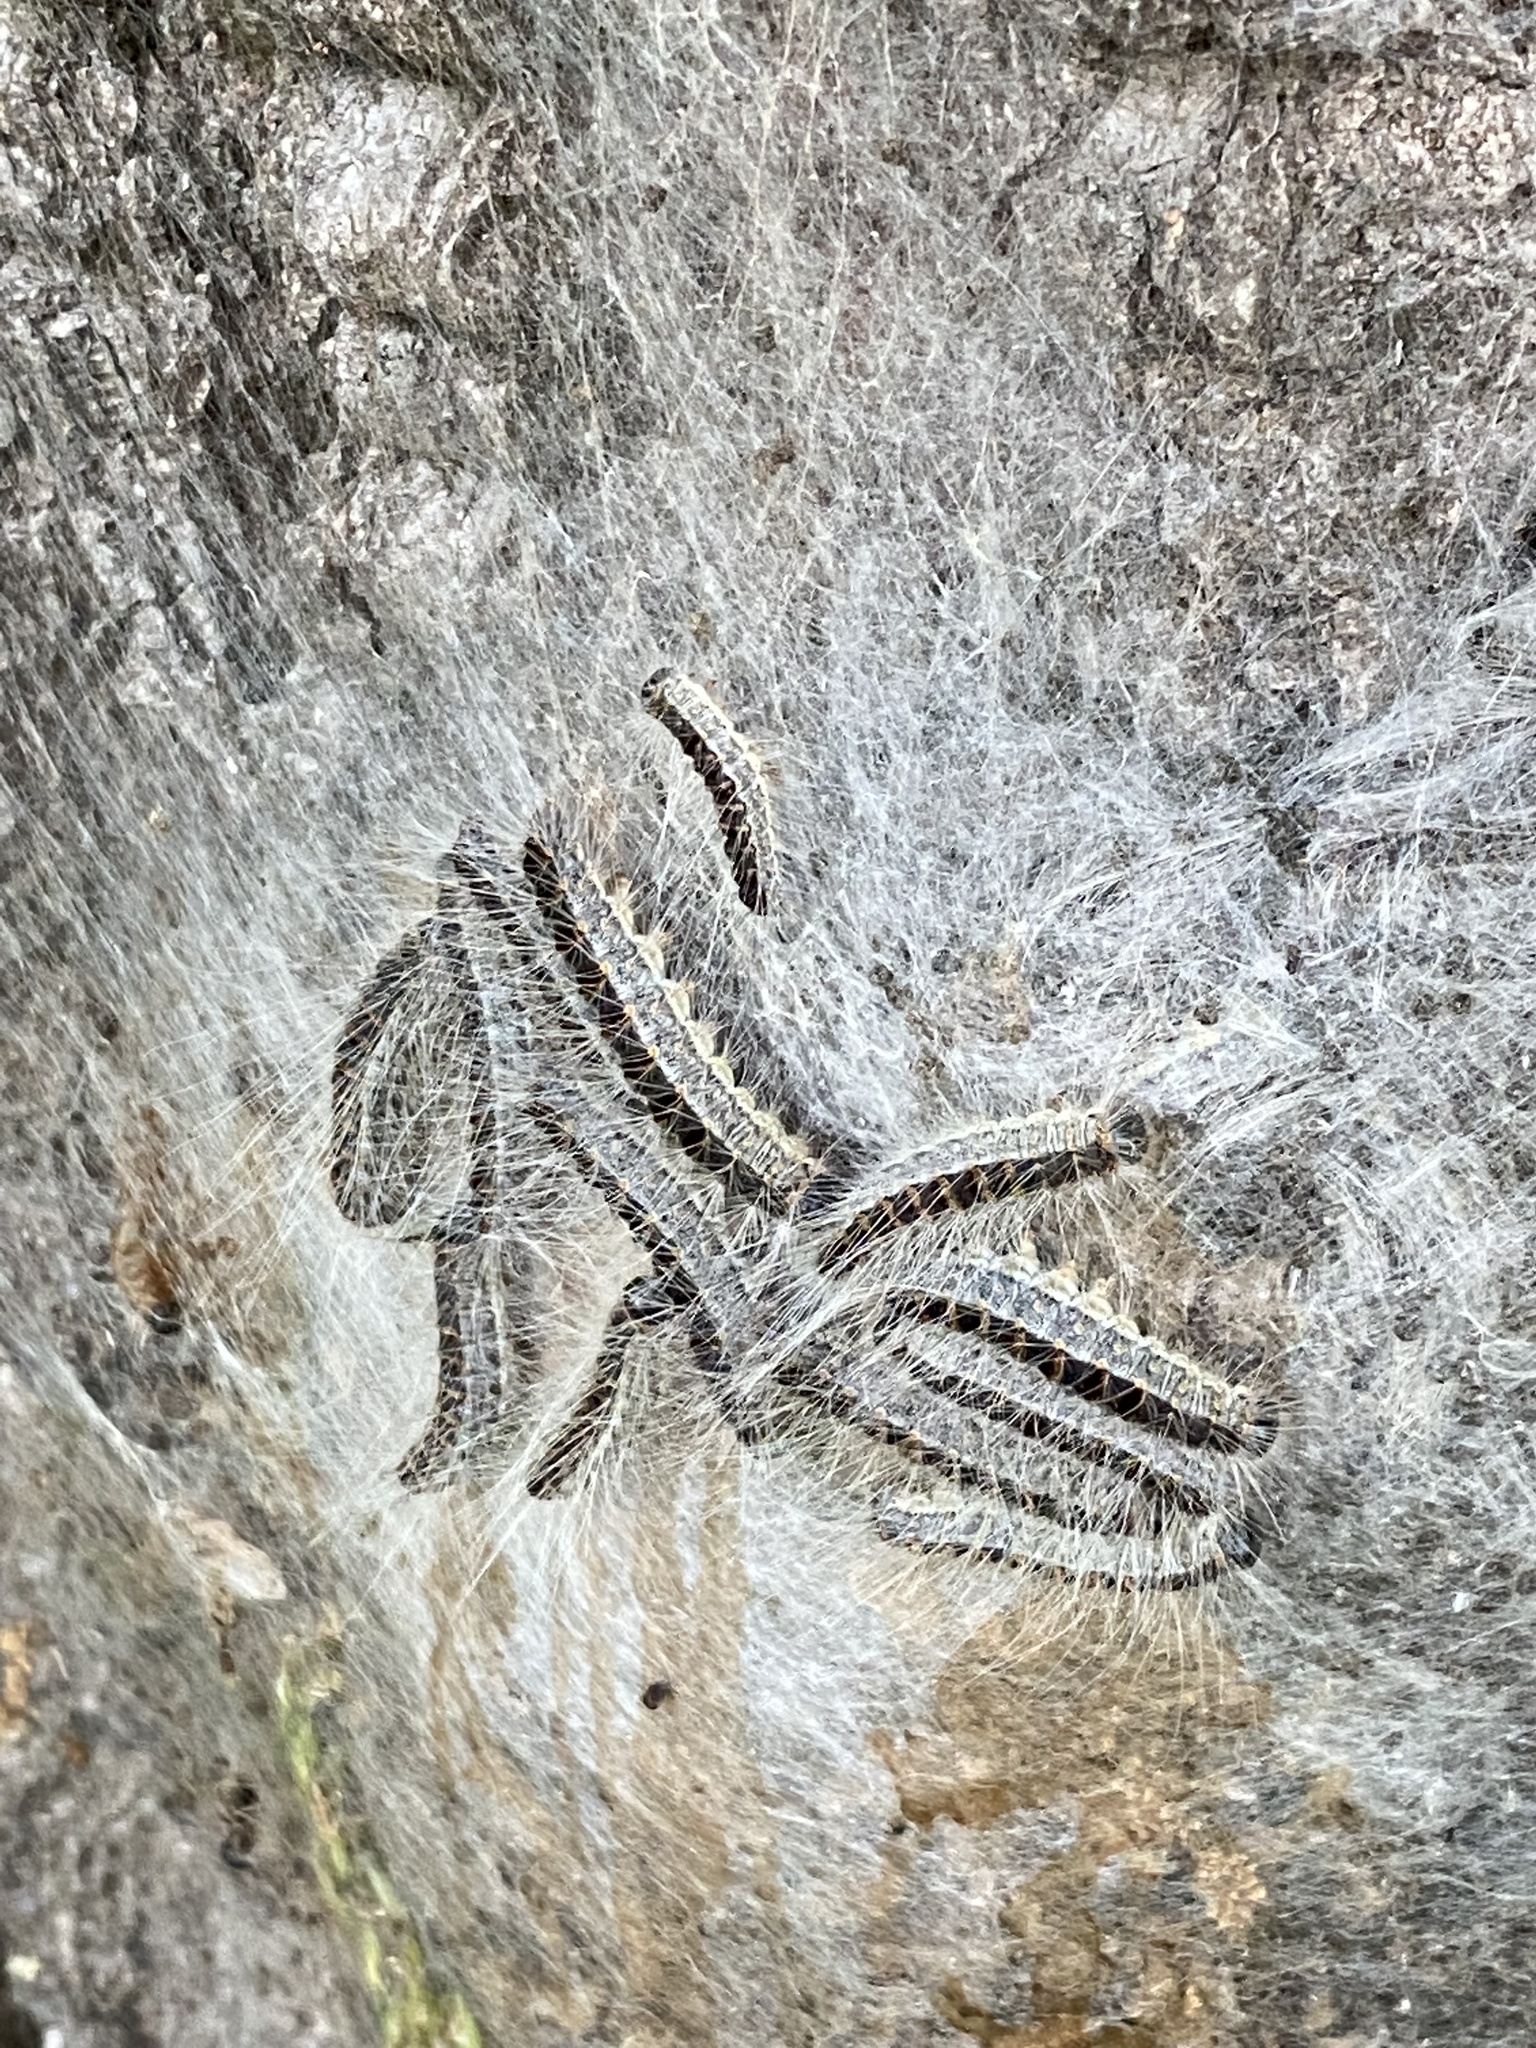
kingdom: Animalia
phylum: Arthropoda
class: Insecta
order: Lepidoptera
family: Notodontidae
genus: Thaumetopoea
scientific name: Thaumetopoea processionea
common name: Oak processionea
